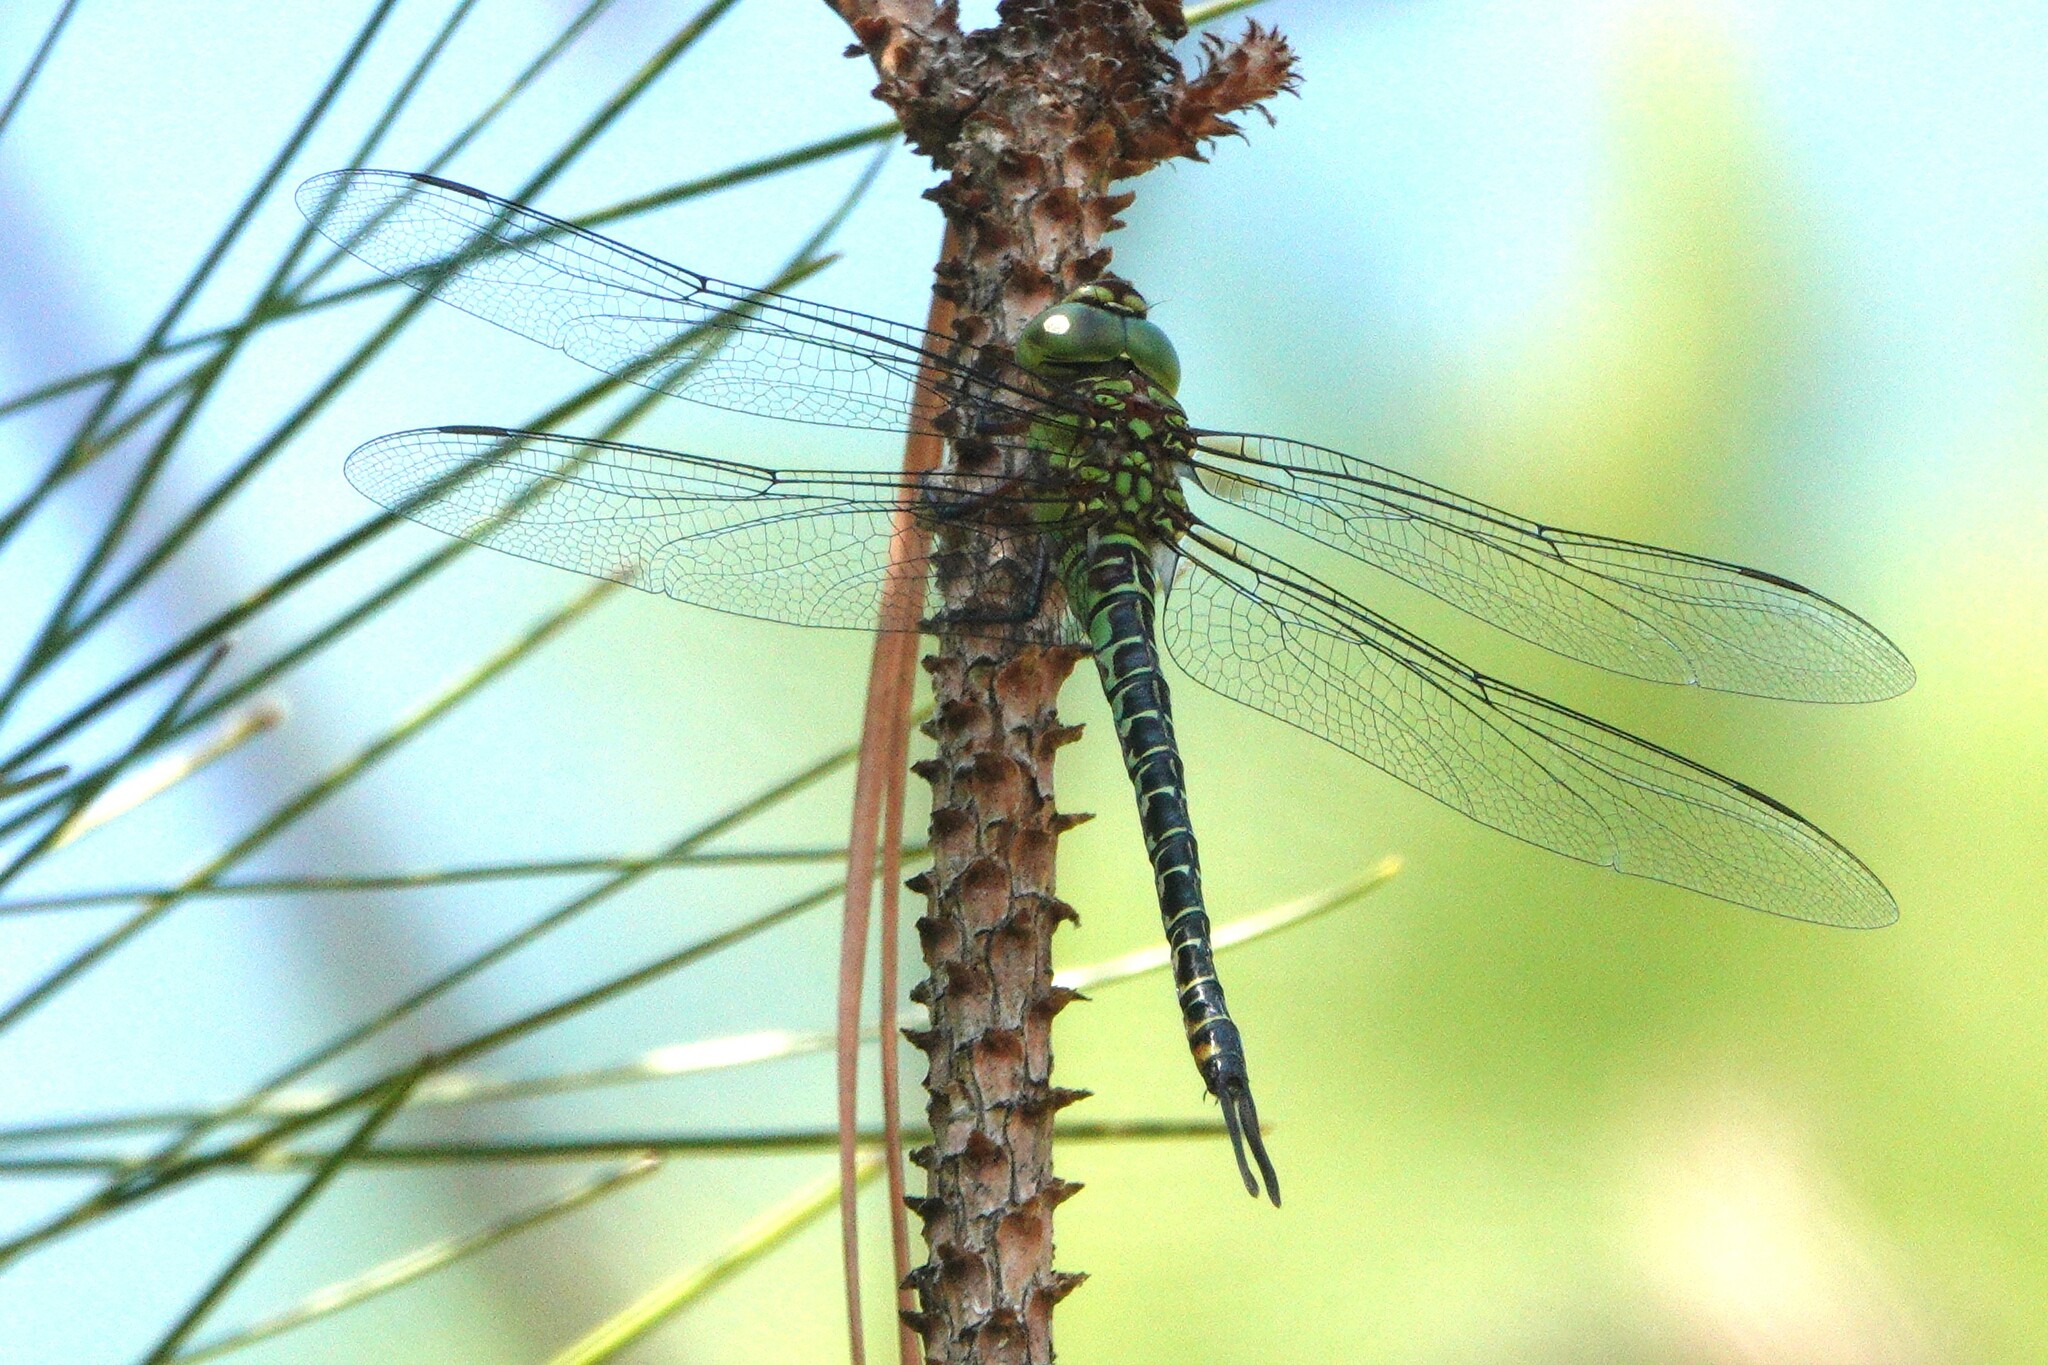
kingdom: Animalia
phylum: Arthropoda
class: Insecta
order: Odonata
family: Aeshnidae
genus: Coryphaeschna
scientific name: Coryphaeschna ingens
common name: Regal darner
